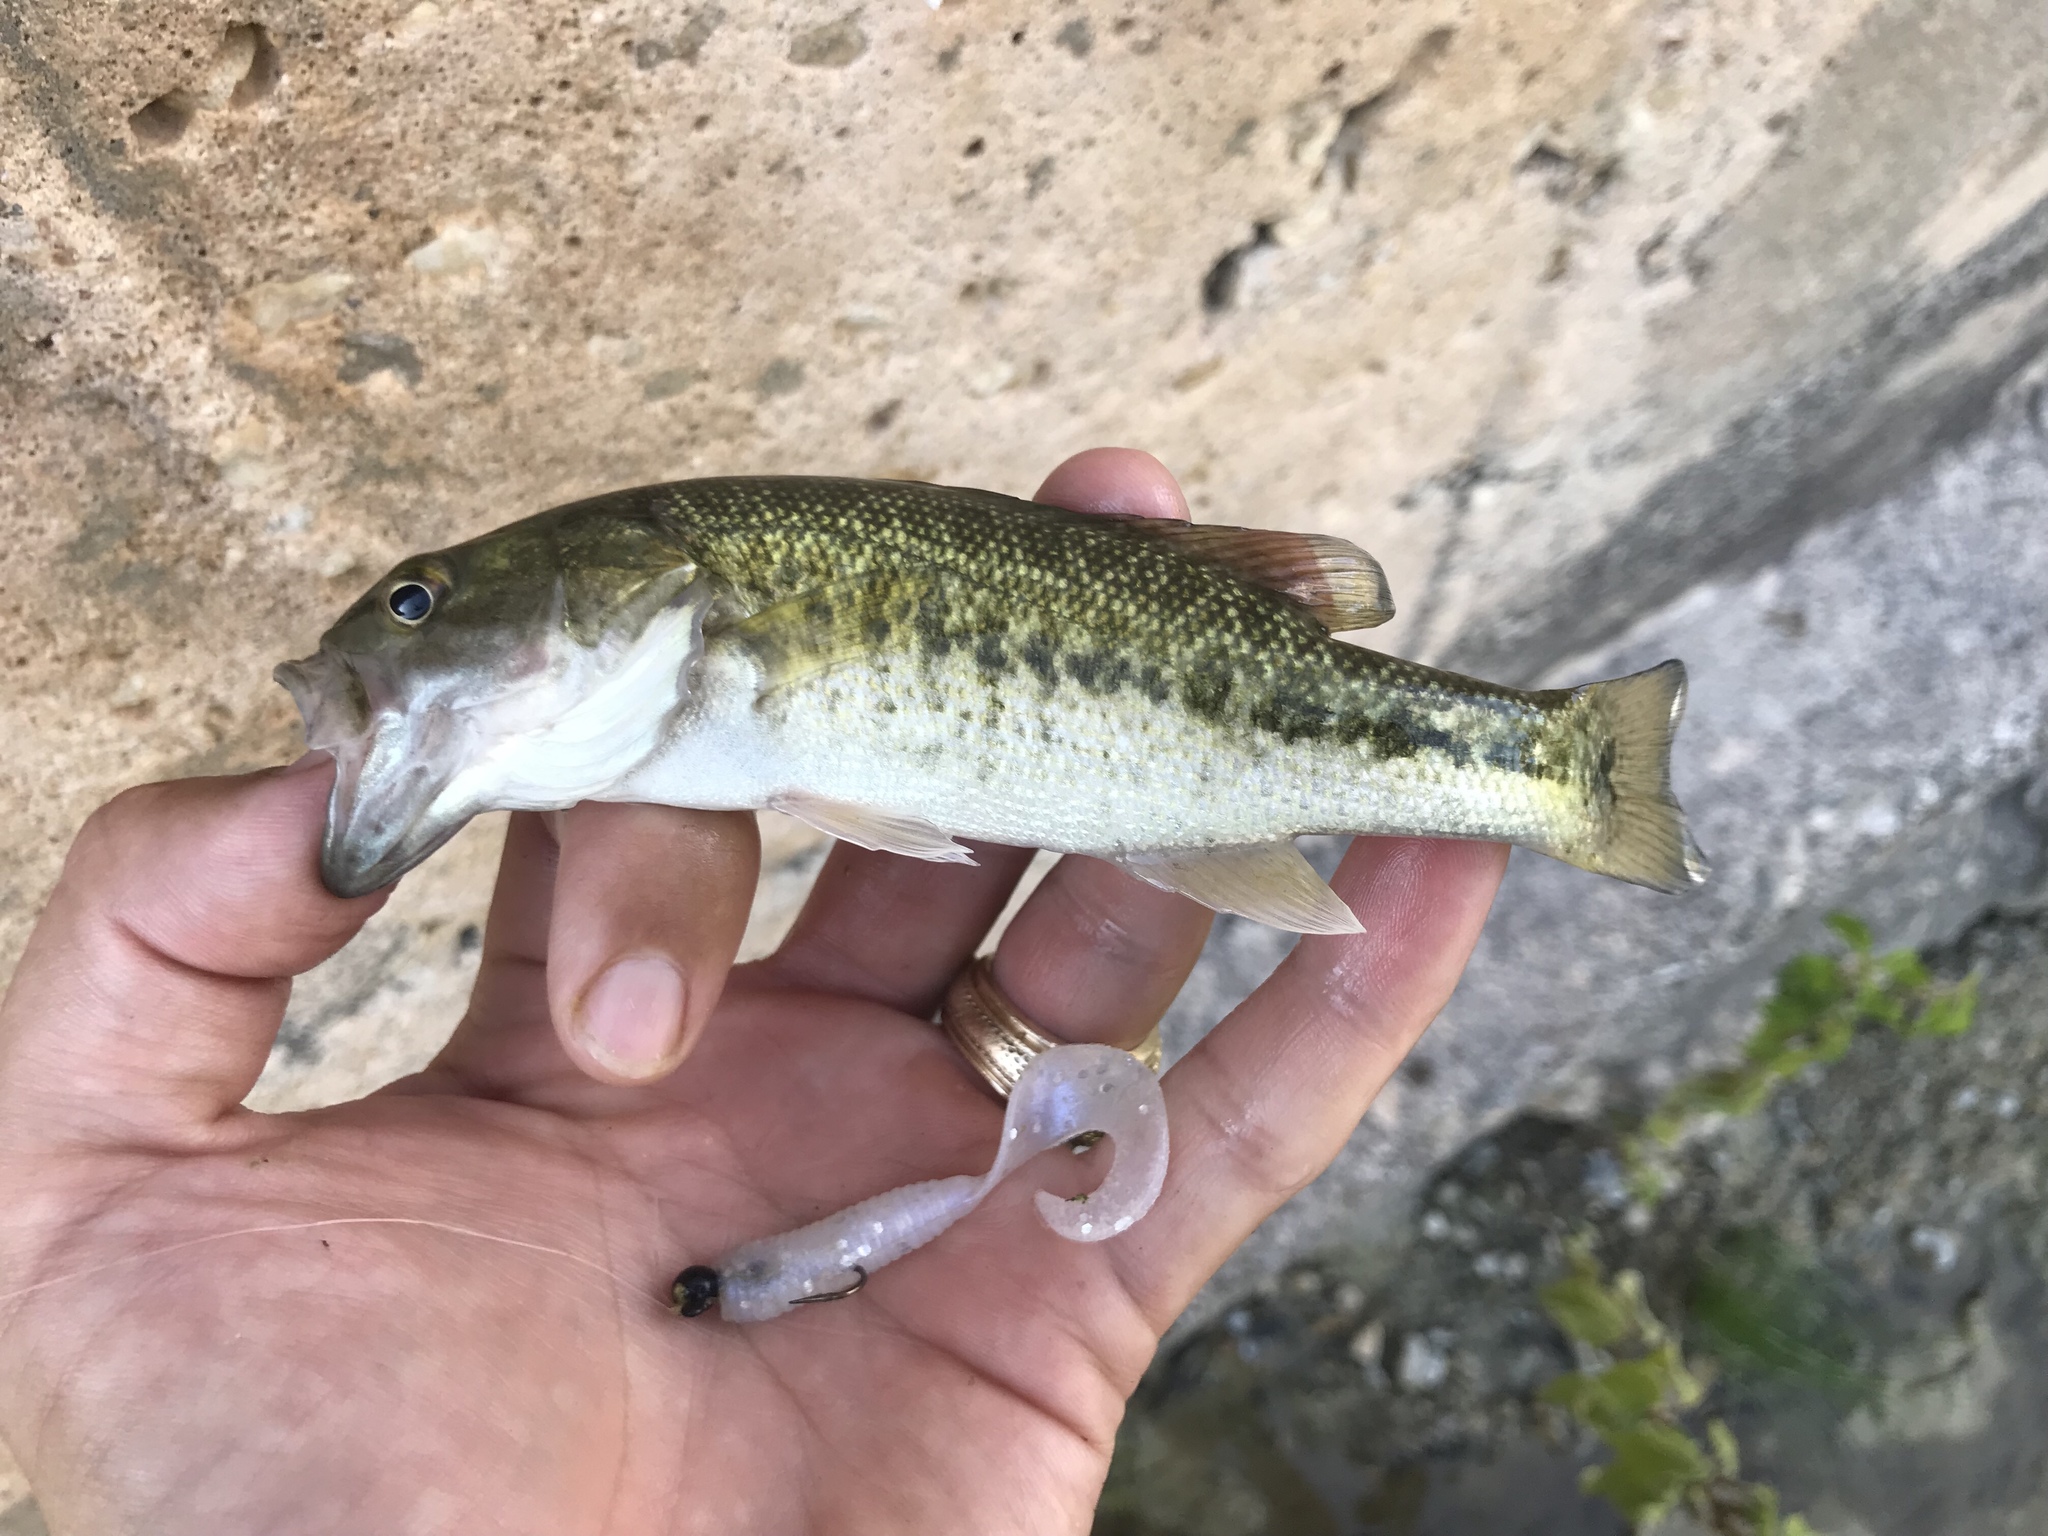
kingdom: Animalia
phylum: Chordata
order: Perciformes
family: Centrarchidae
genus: Micropterus
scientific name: Micropterus treculii
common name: Guadalupe bass
